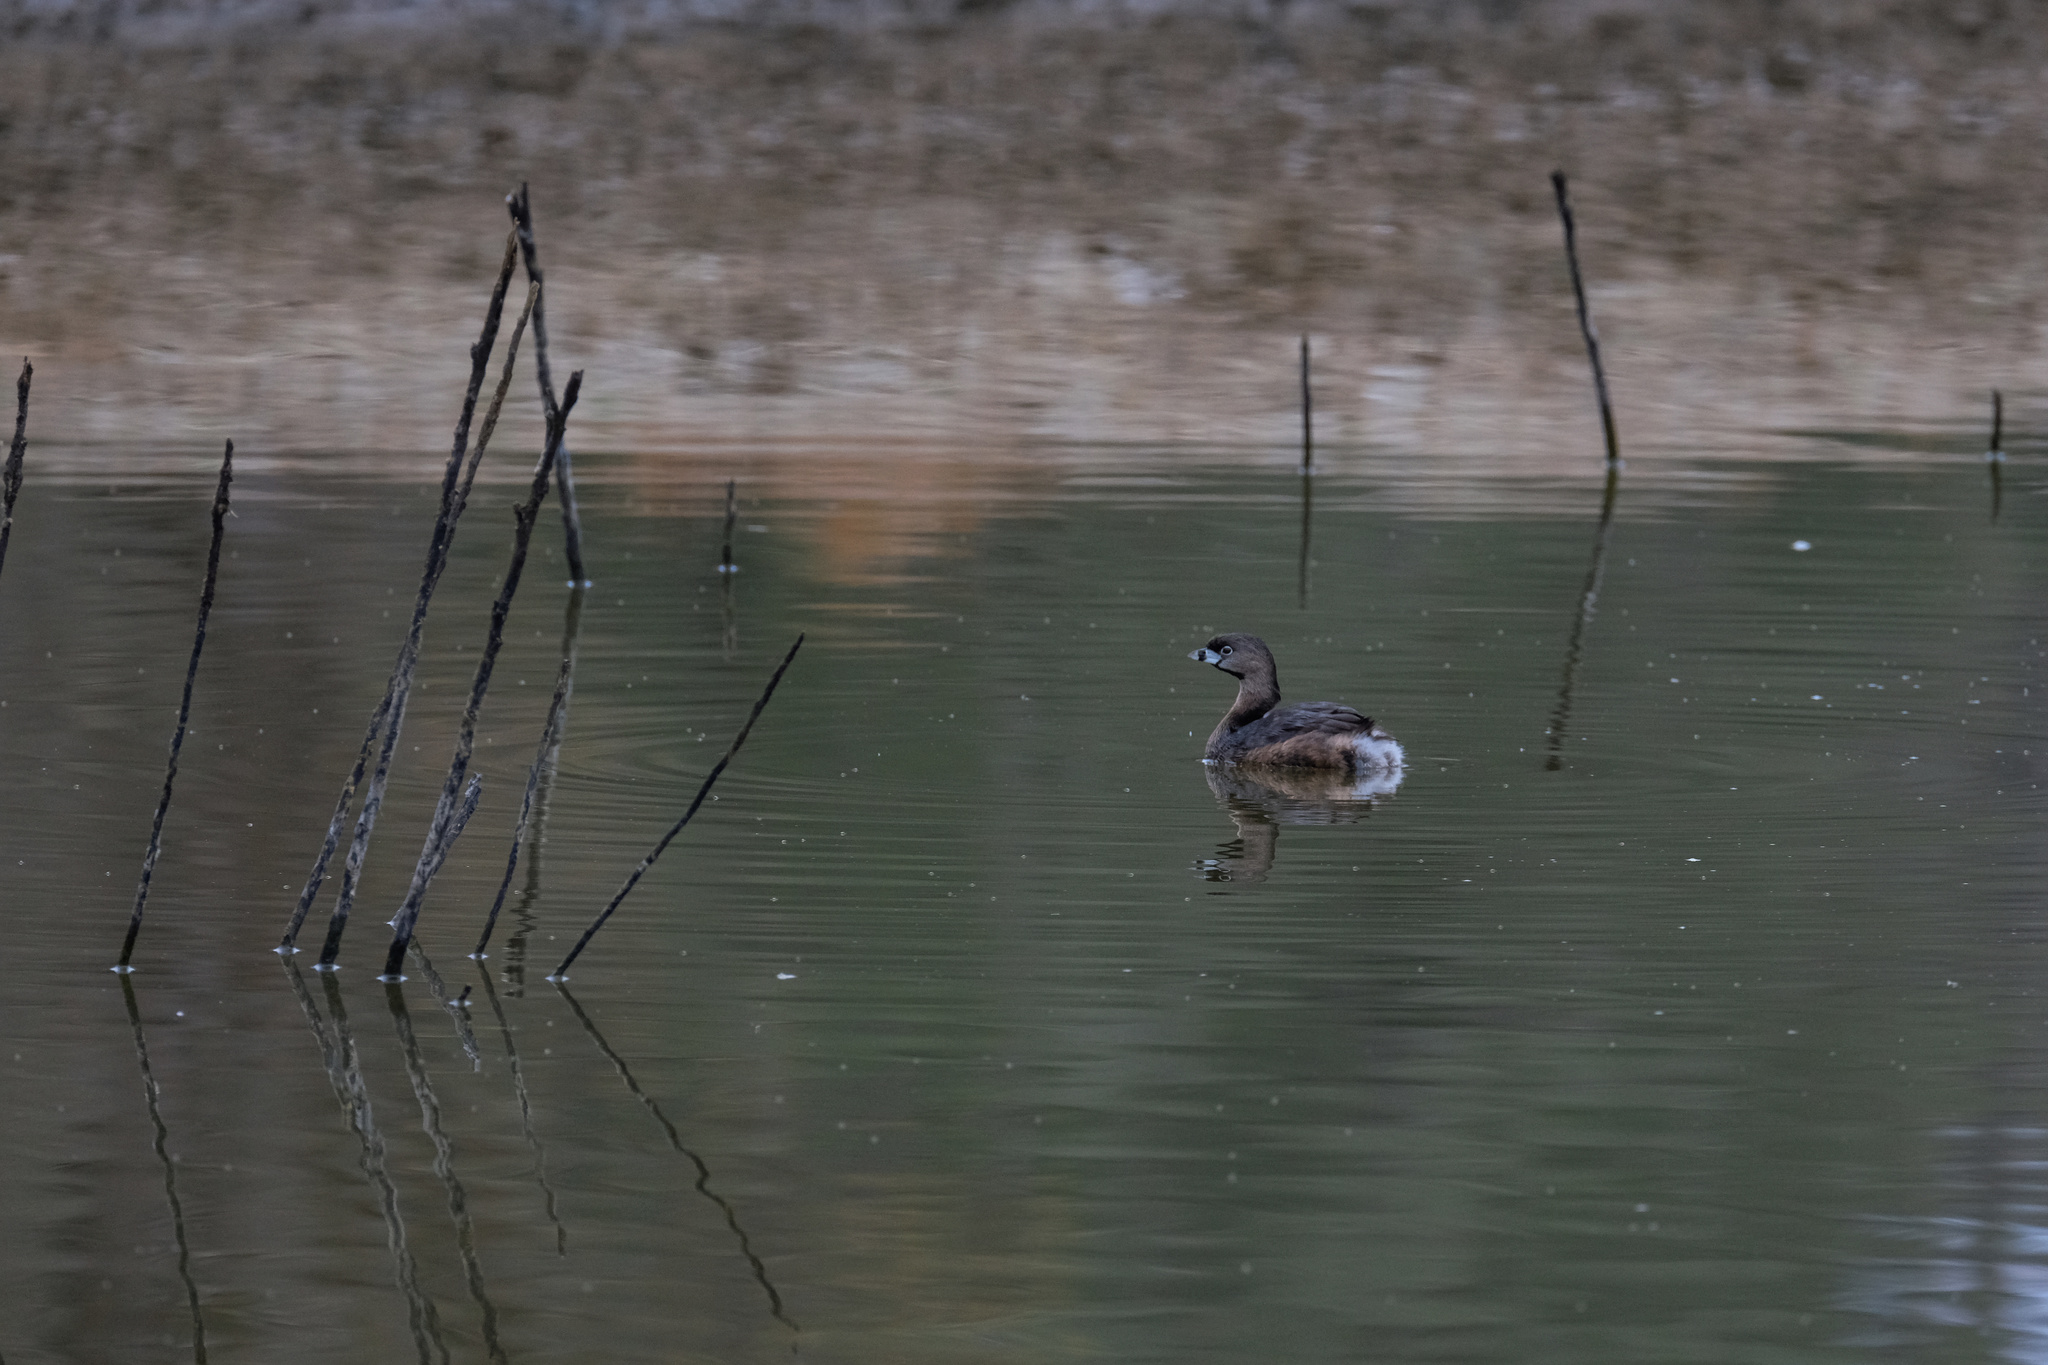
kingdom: Animalia
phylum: Chordata
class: Aves
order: Podicipediformes
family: Podicipedidae
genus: Podilymbus
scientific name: Podilymbus podiceps
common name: Pied-billed grebe
